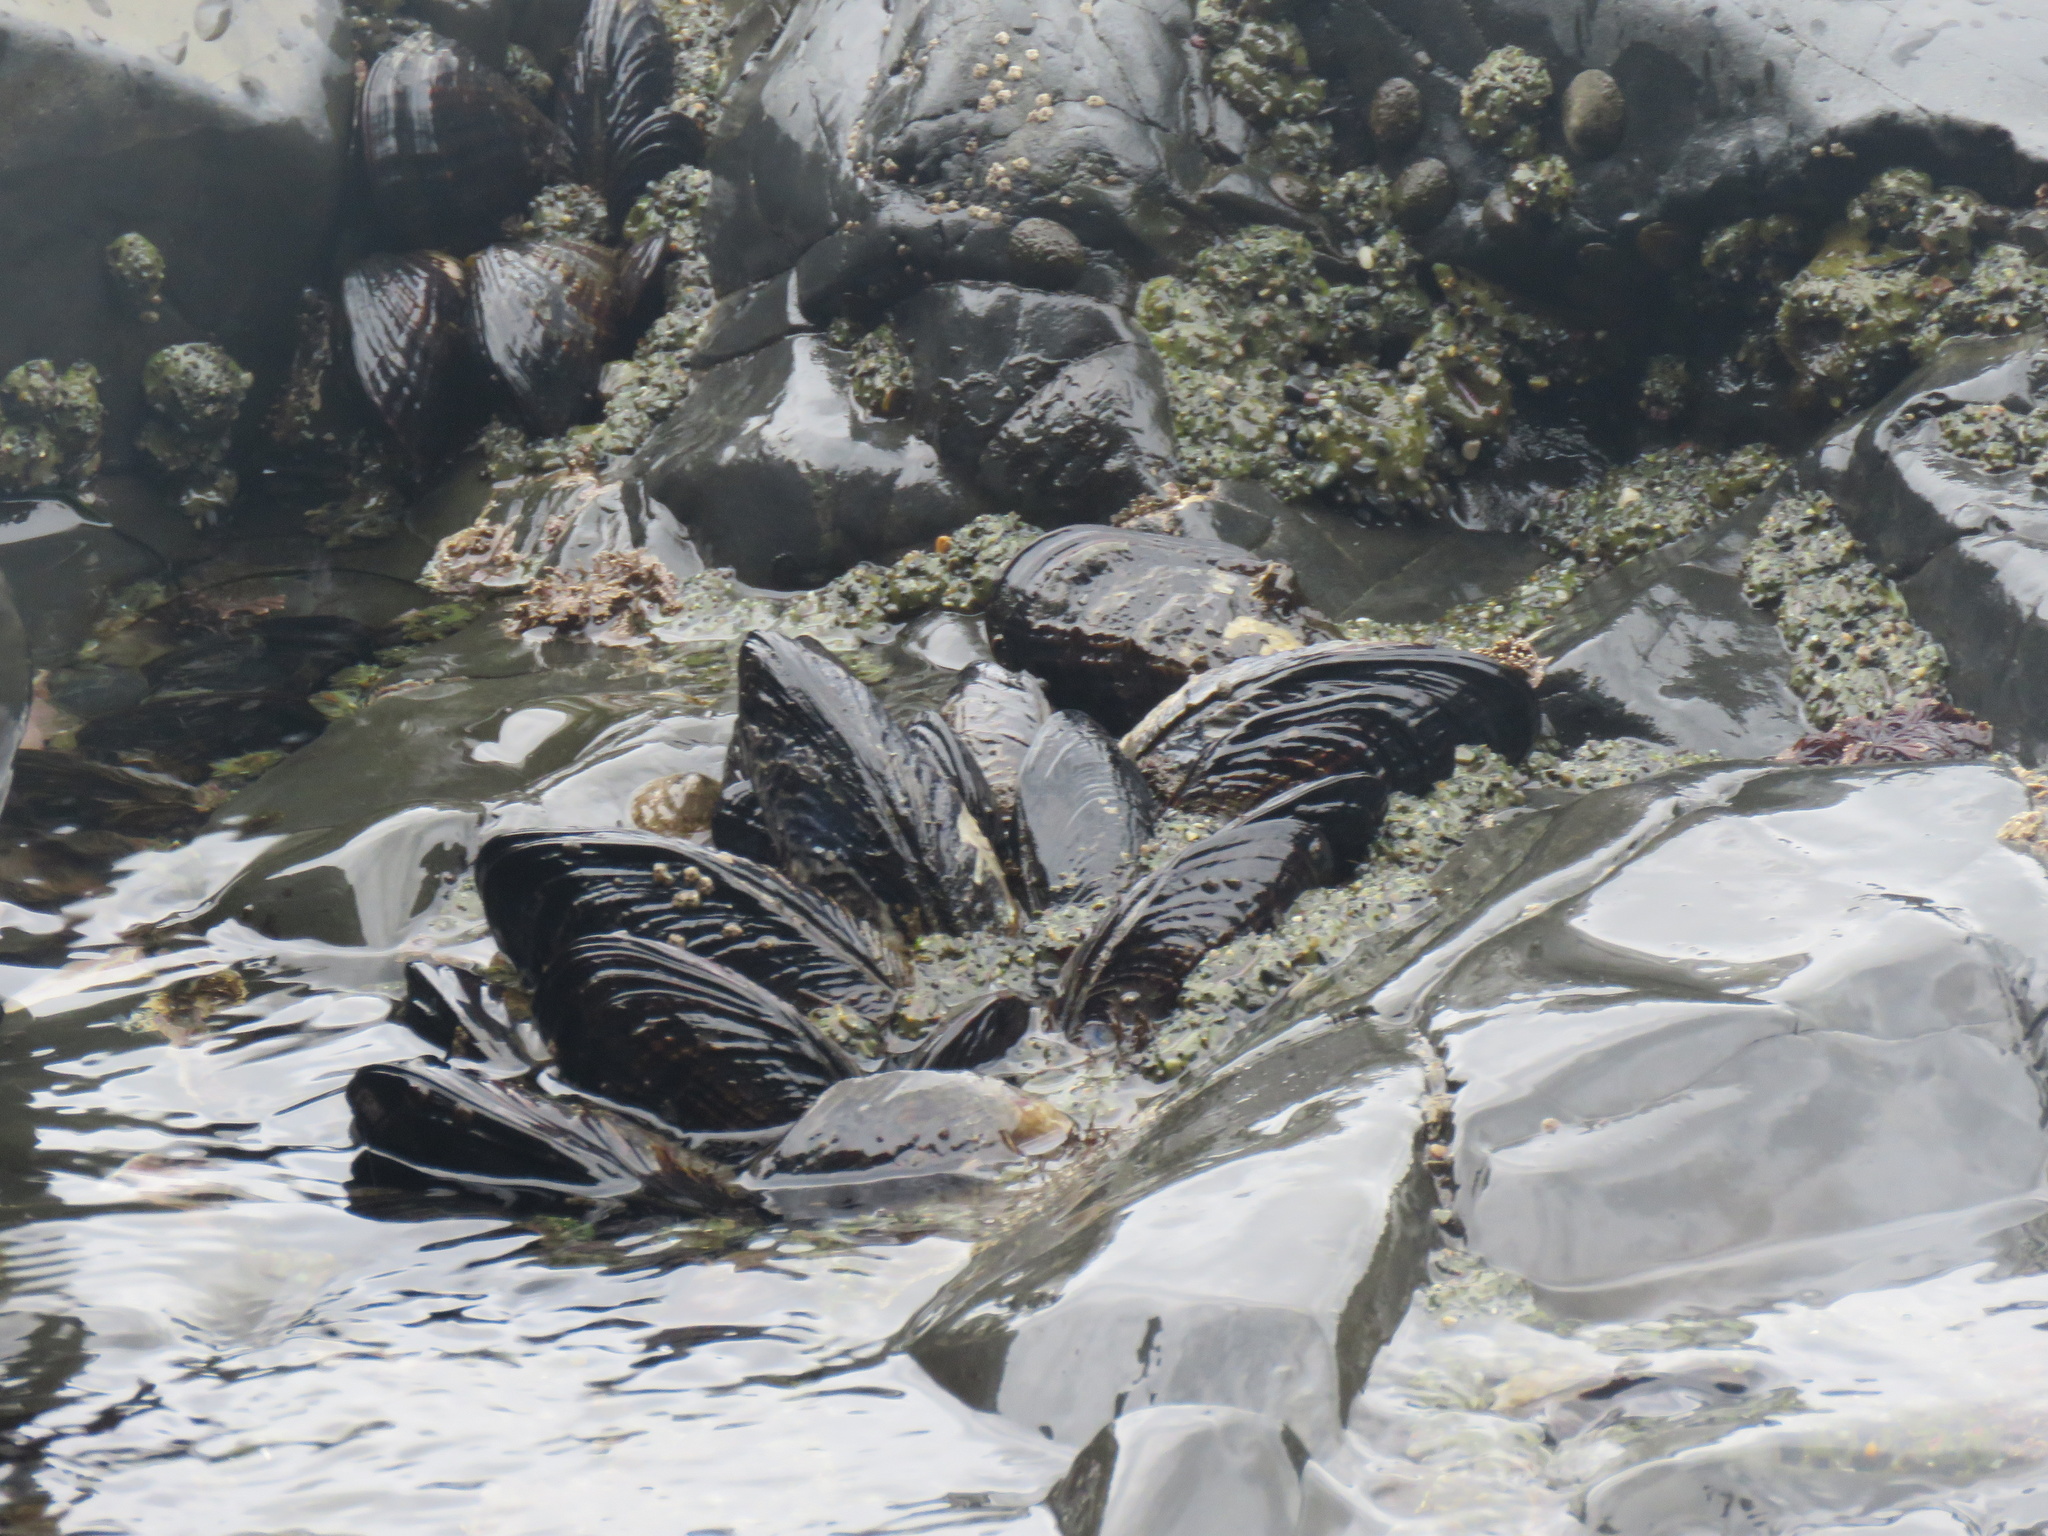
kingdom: Animalia
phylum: Mollusca
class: Bivalvia
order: Mytilida
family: Mytilidae
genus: Mytilus
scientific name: Mytilus californianus
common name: California mussel
